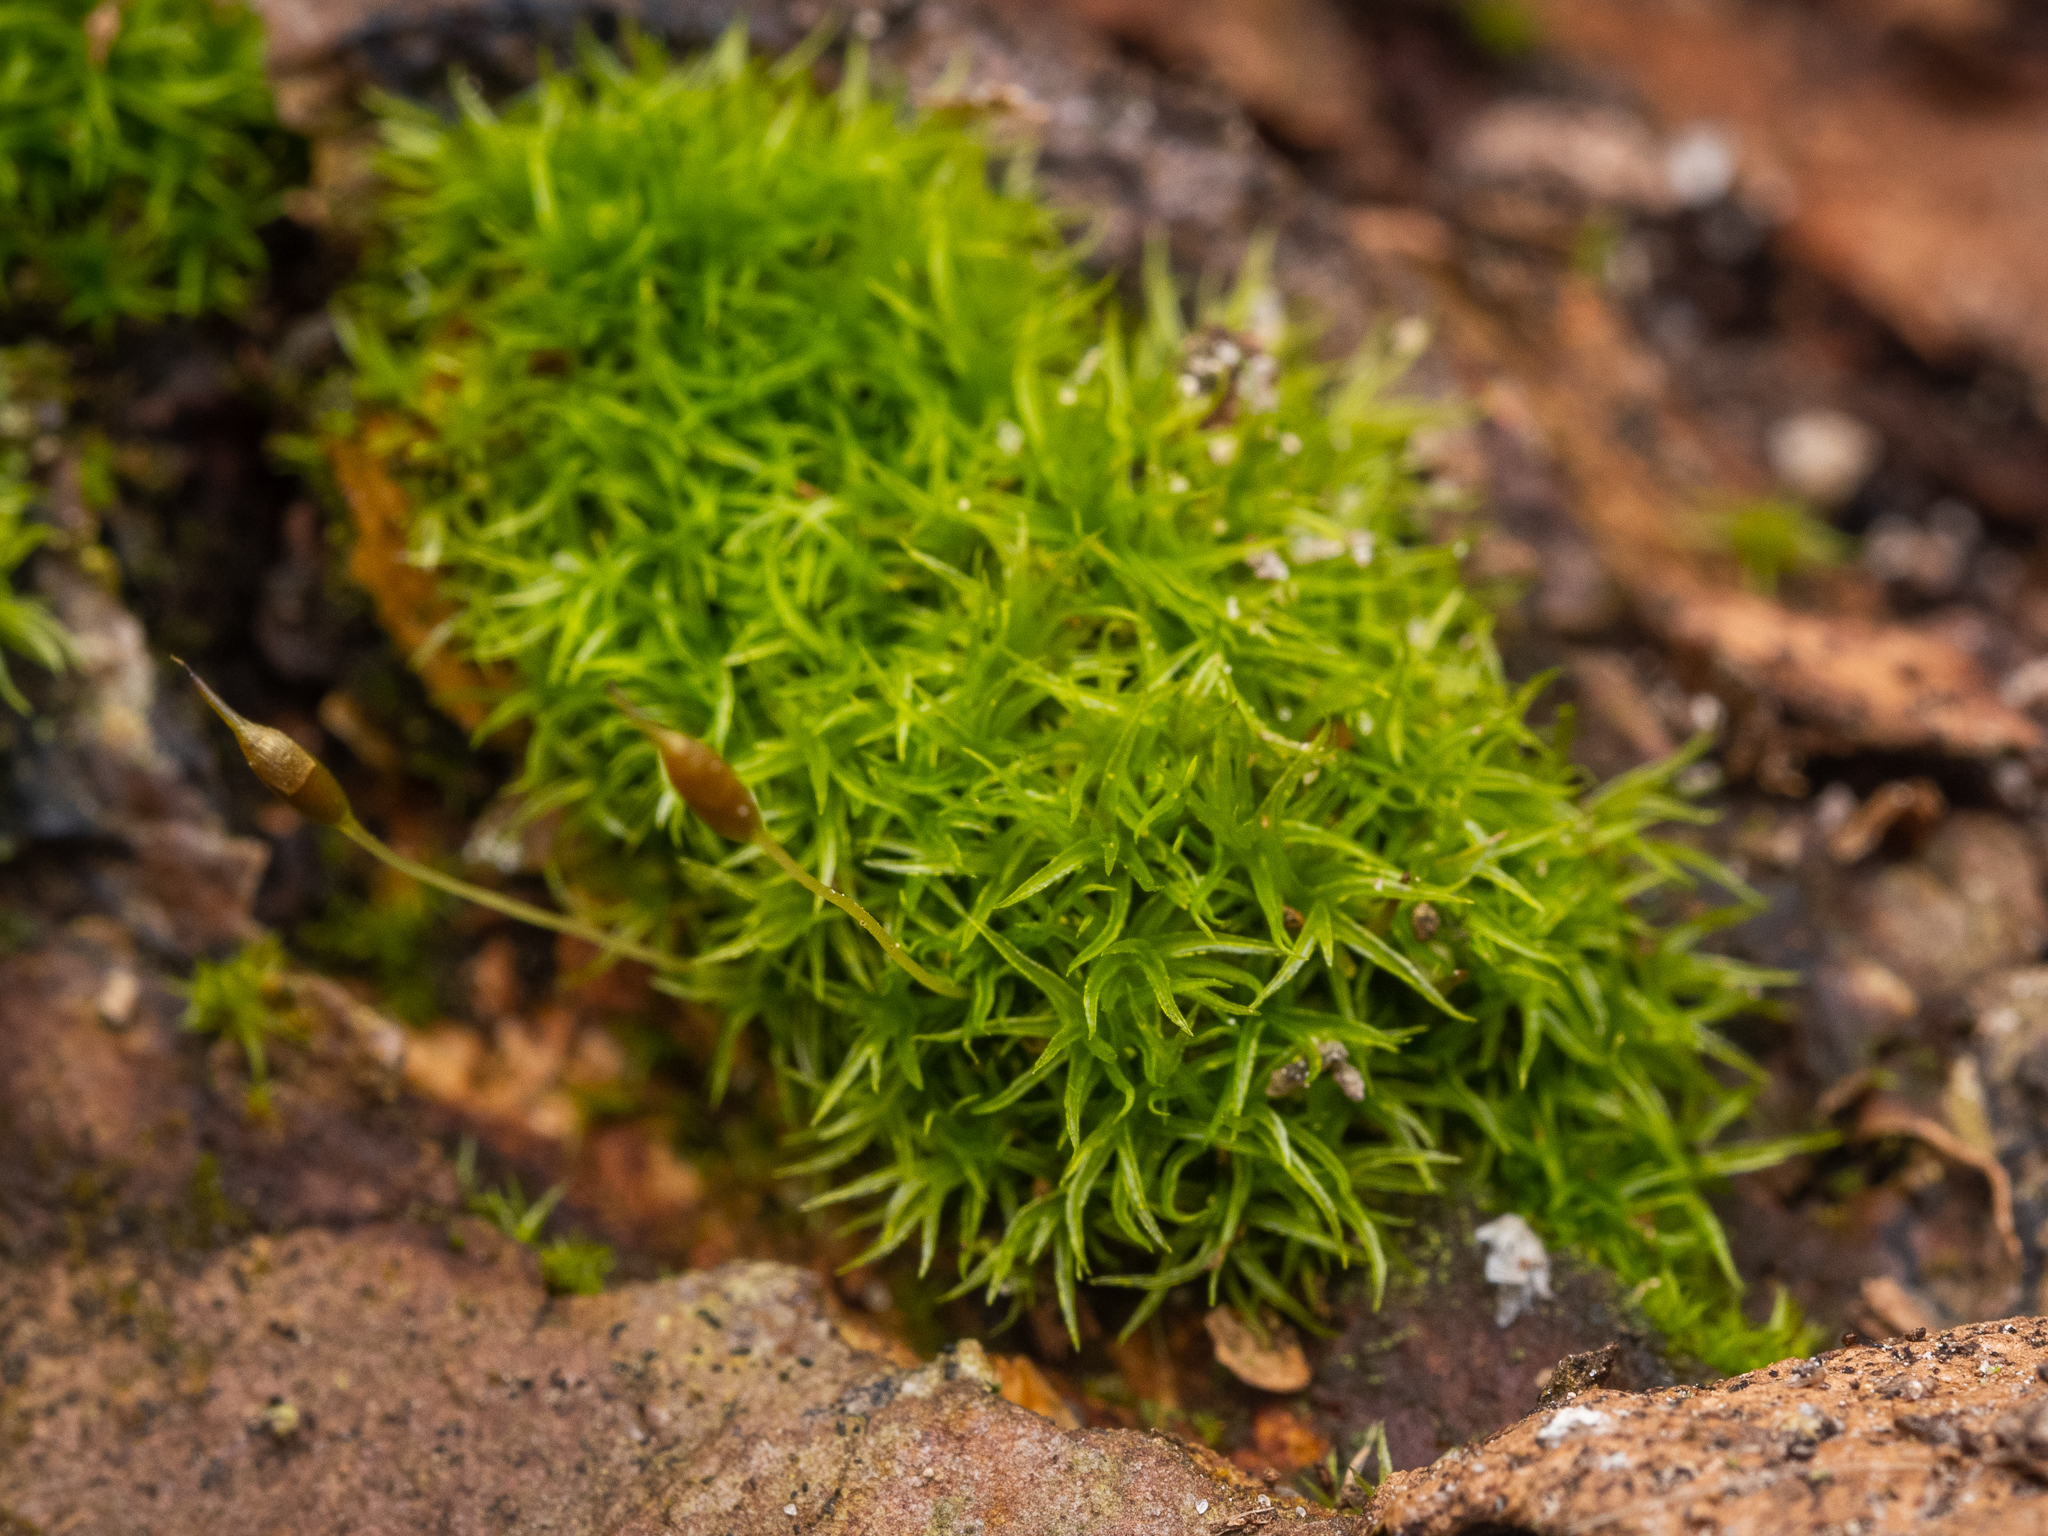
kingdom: Plantae
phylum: Bryophyta
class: Bryopsida
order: Dicranales
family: Rhabdoweisiaceae
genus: Dicranoweisia
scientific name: Dicranoweisia cirrata
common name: Common pincushion
